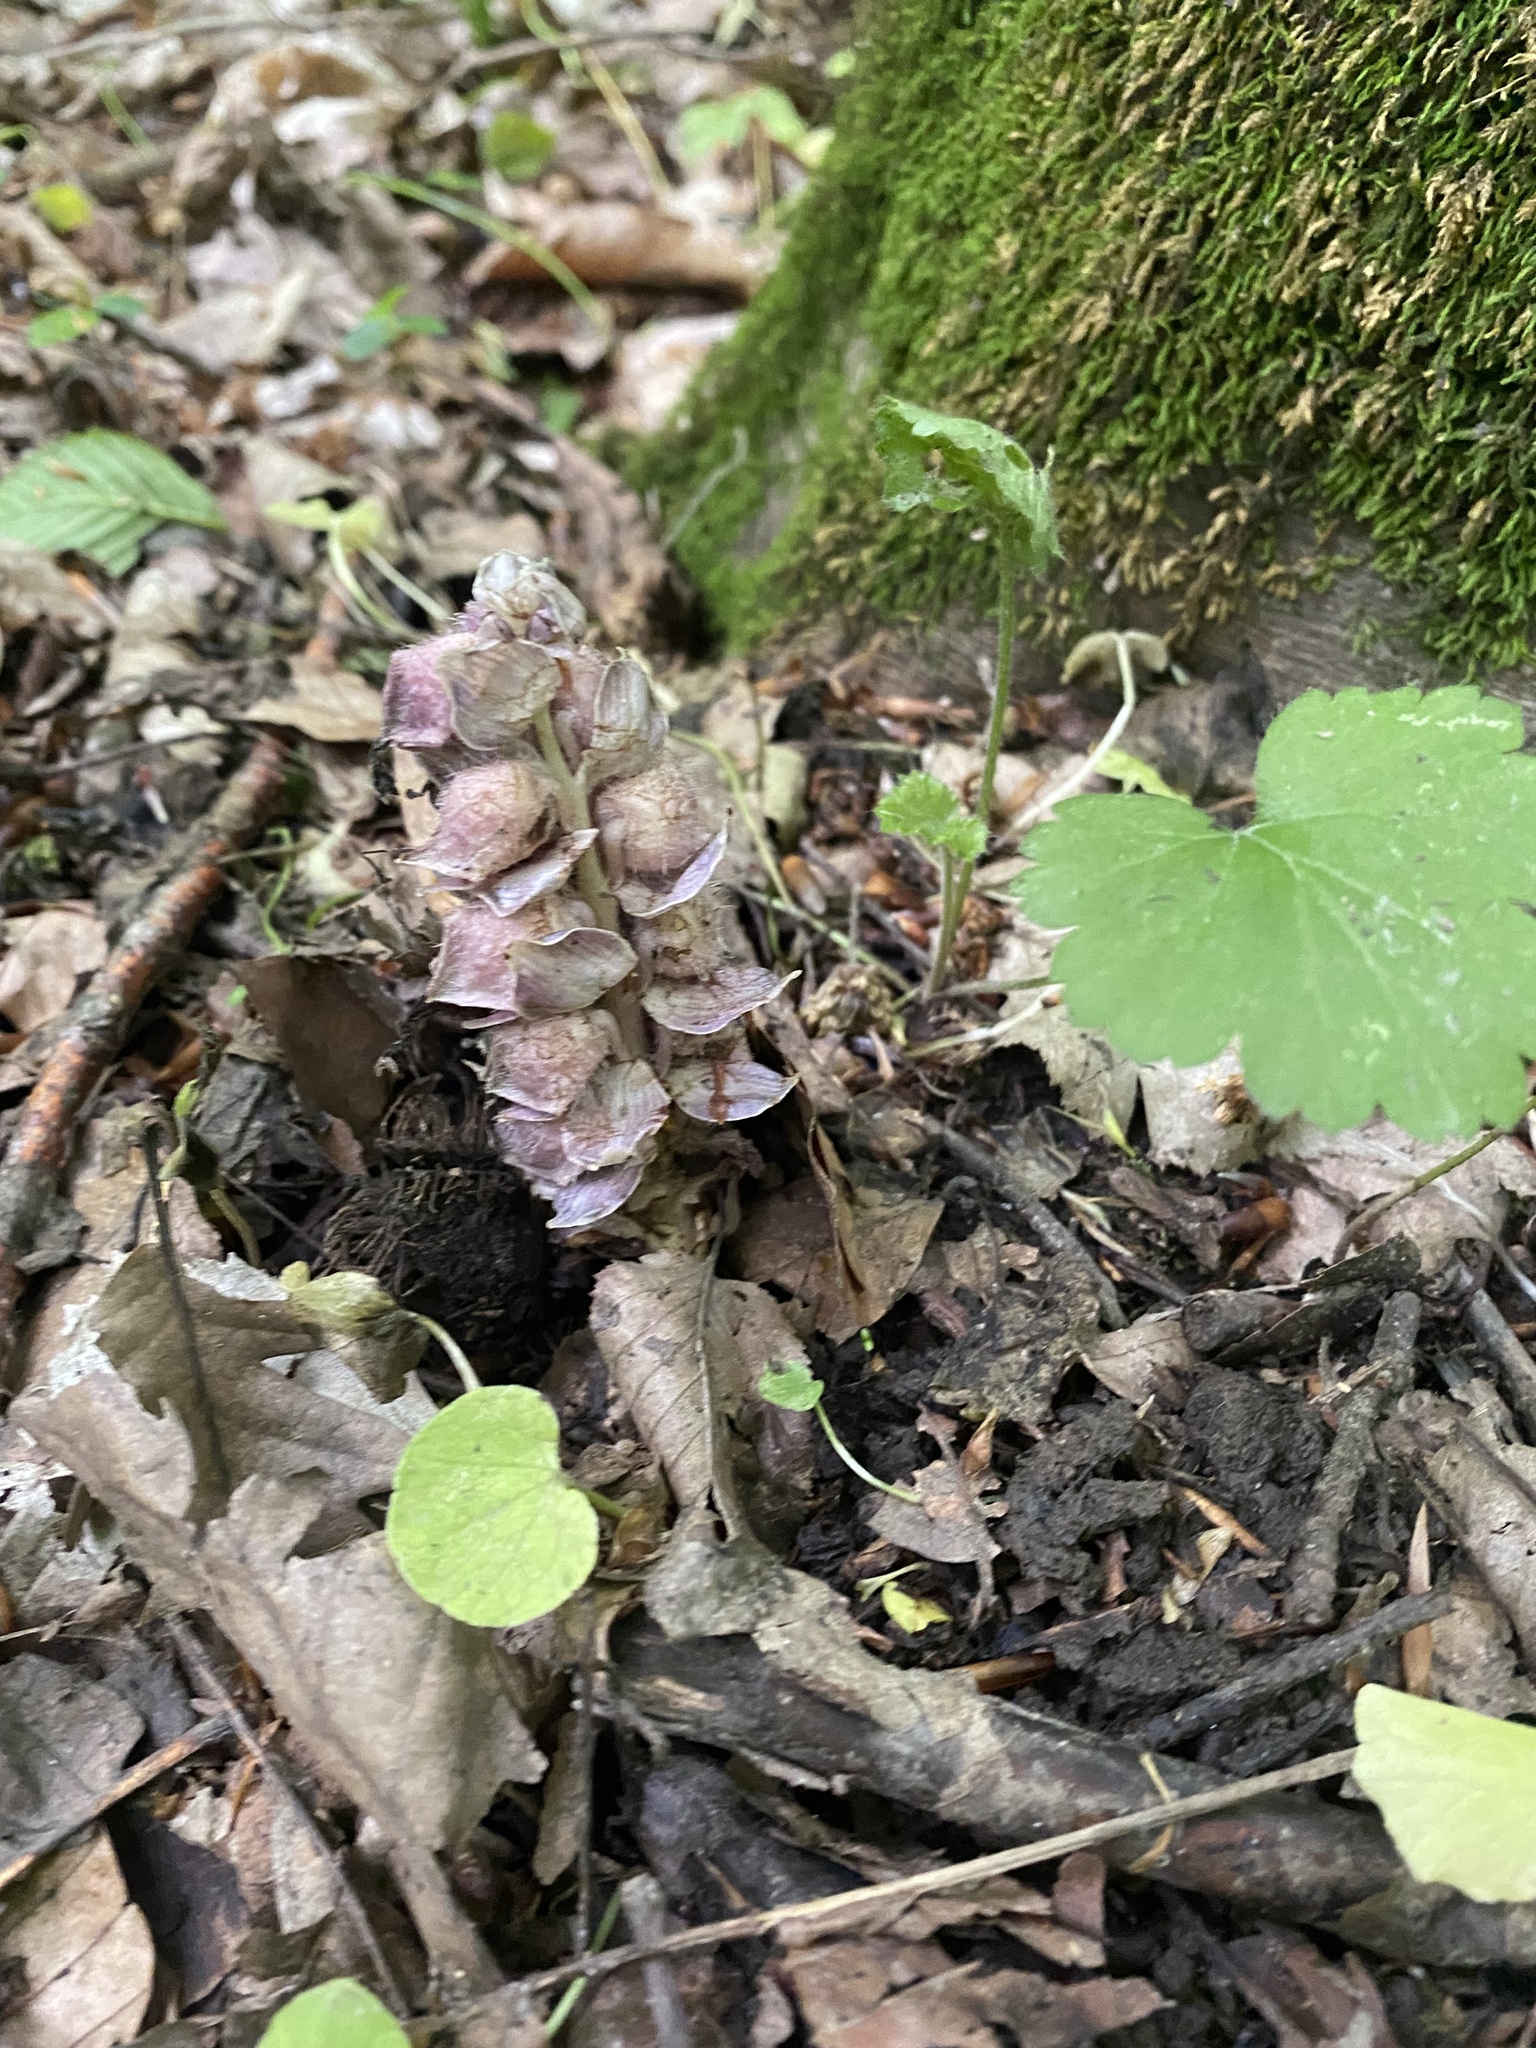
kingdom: Plantae
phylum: Tracheophyta
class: Magnoliopsida
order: Lamiales
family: Orobanchaceae
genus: Lathraea
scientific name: Lathraea squamaria
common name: Toothwort
